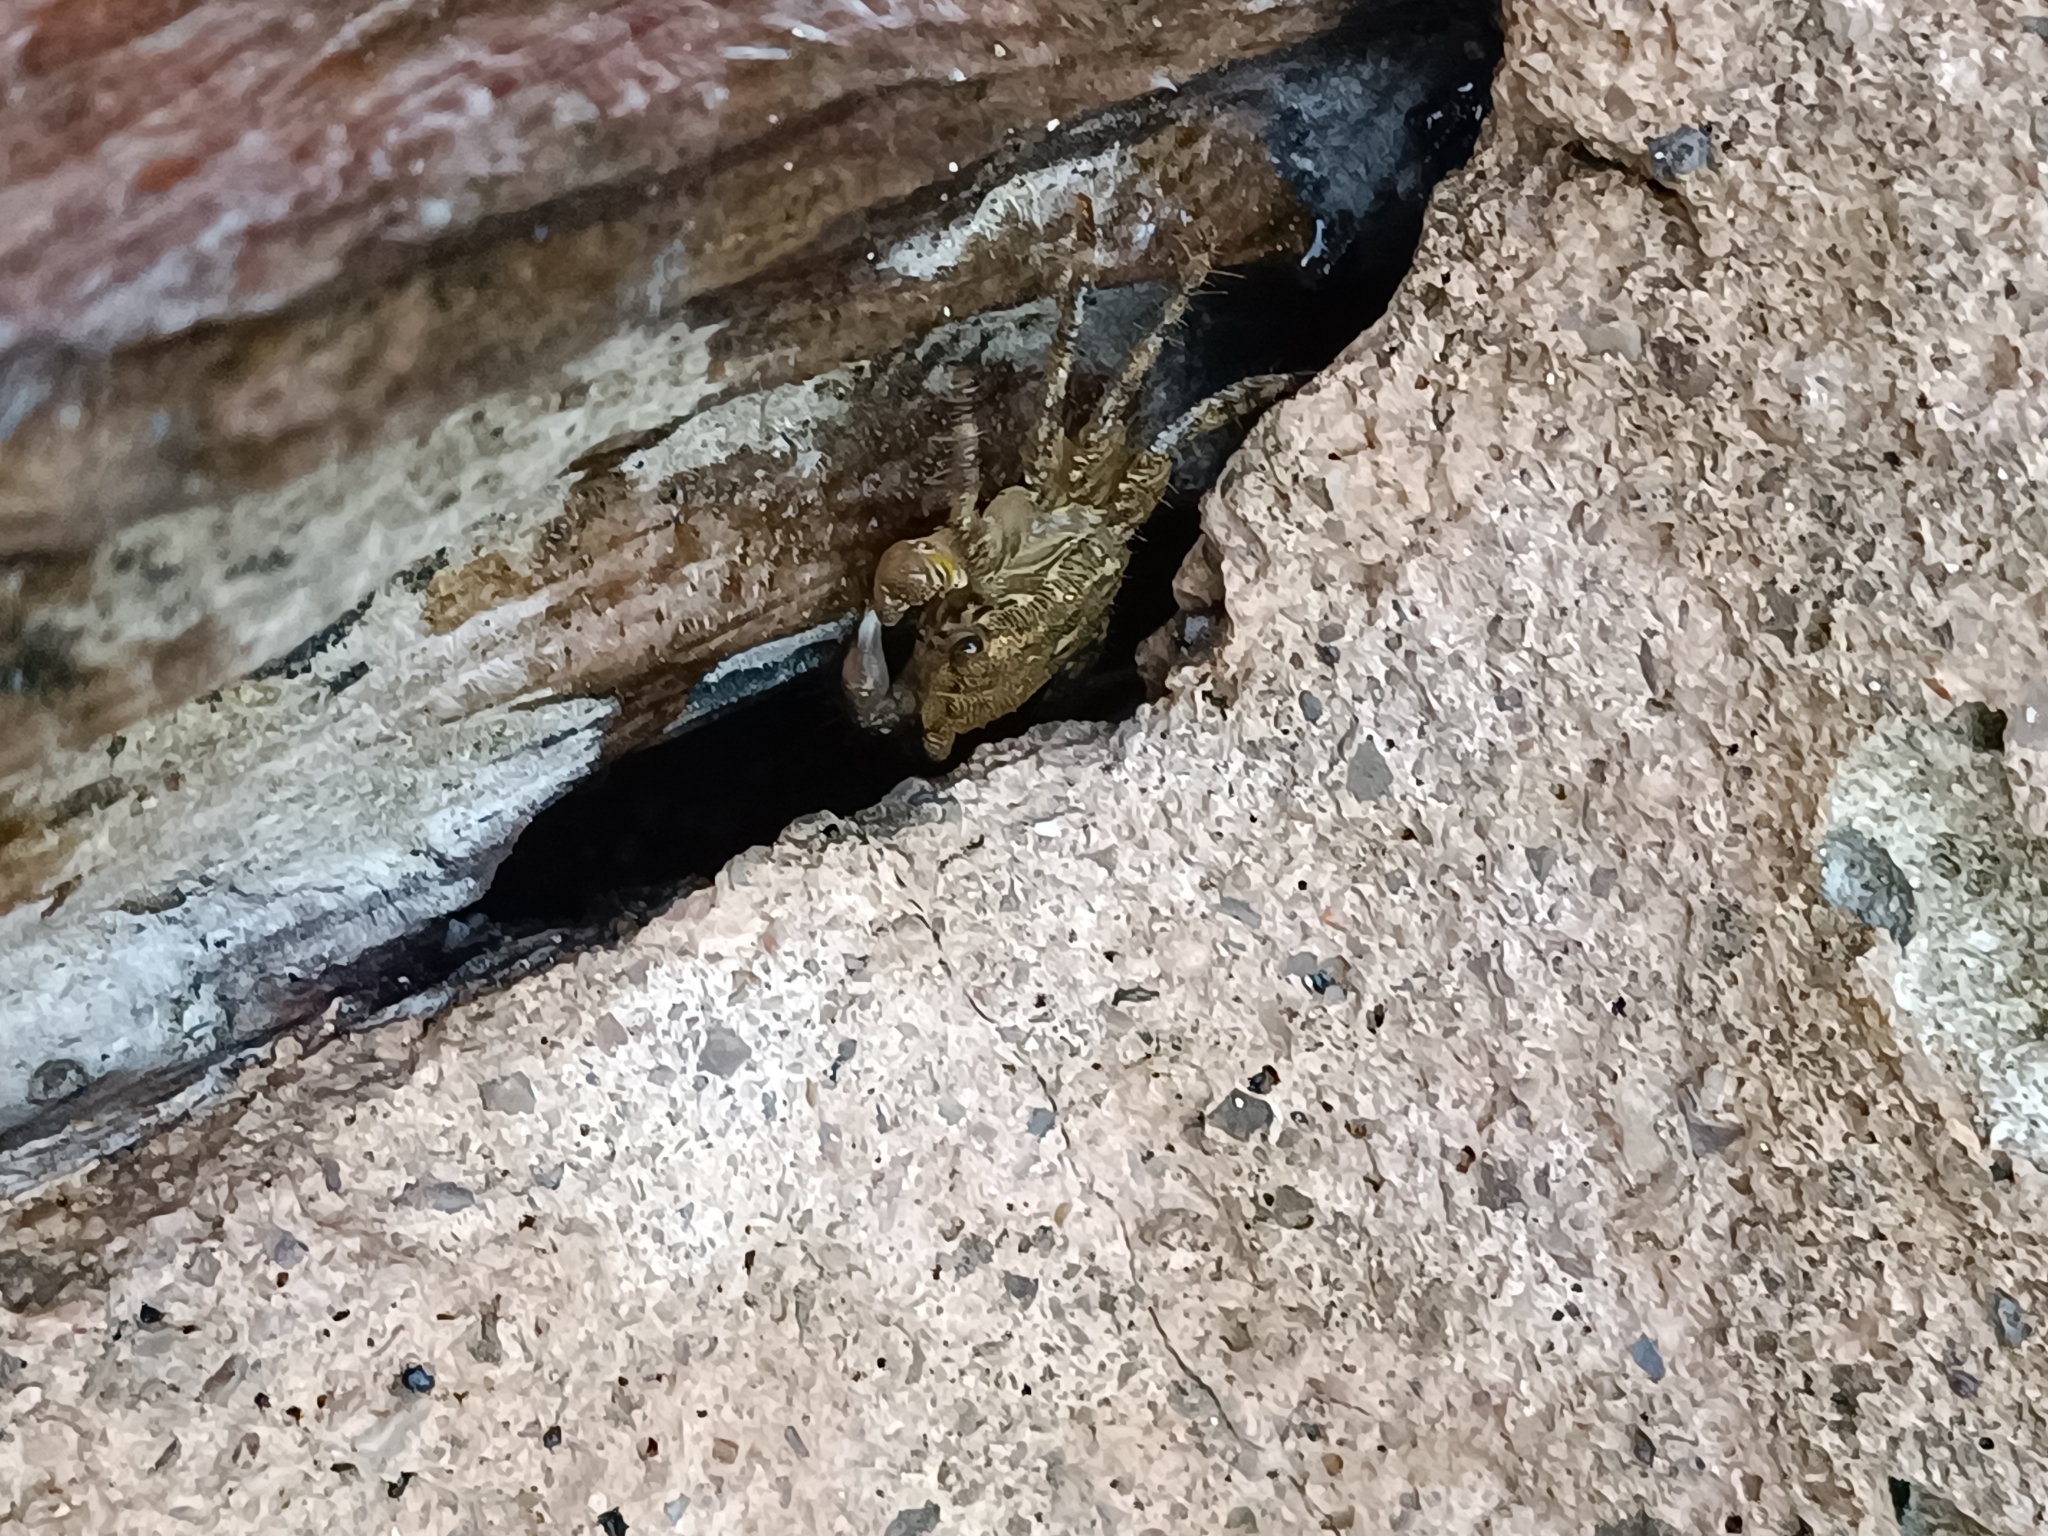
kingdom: Animalia
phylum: Arthropoda
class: Malacostraca
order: Decapoda
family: Grapsidae
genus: Pachygrapsus
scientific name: Pachygrapsus marmoratus
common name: Marbled rock crab
